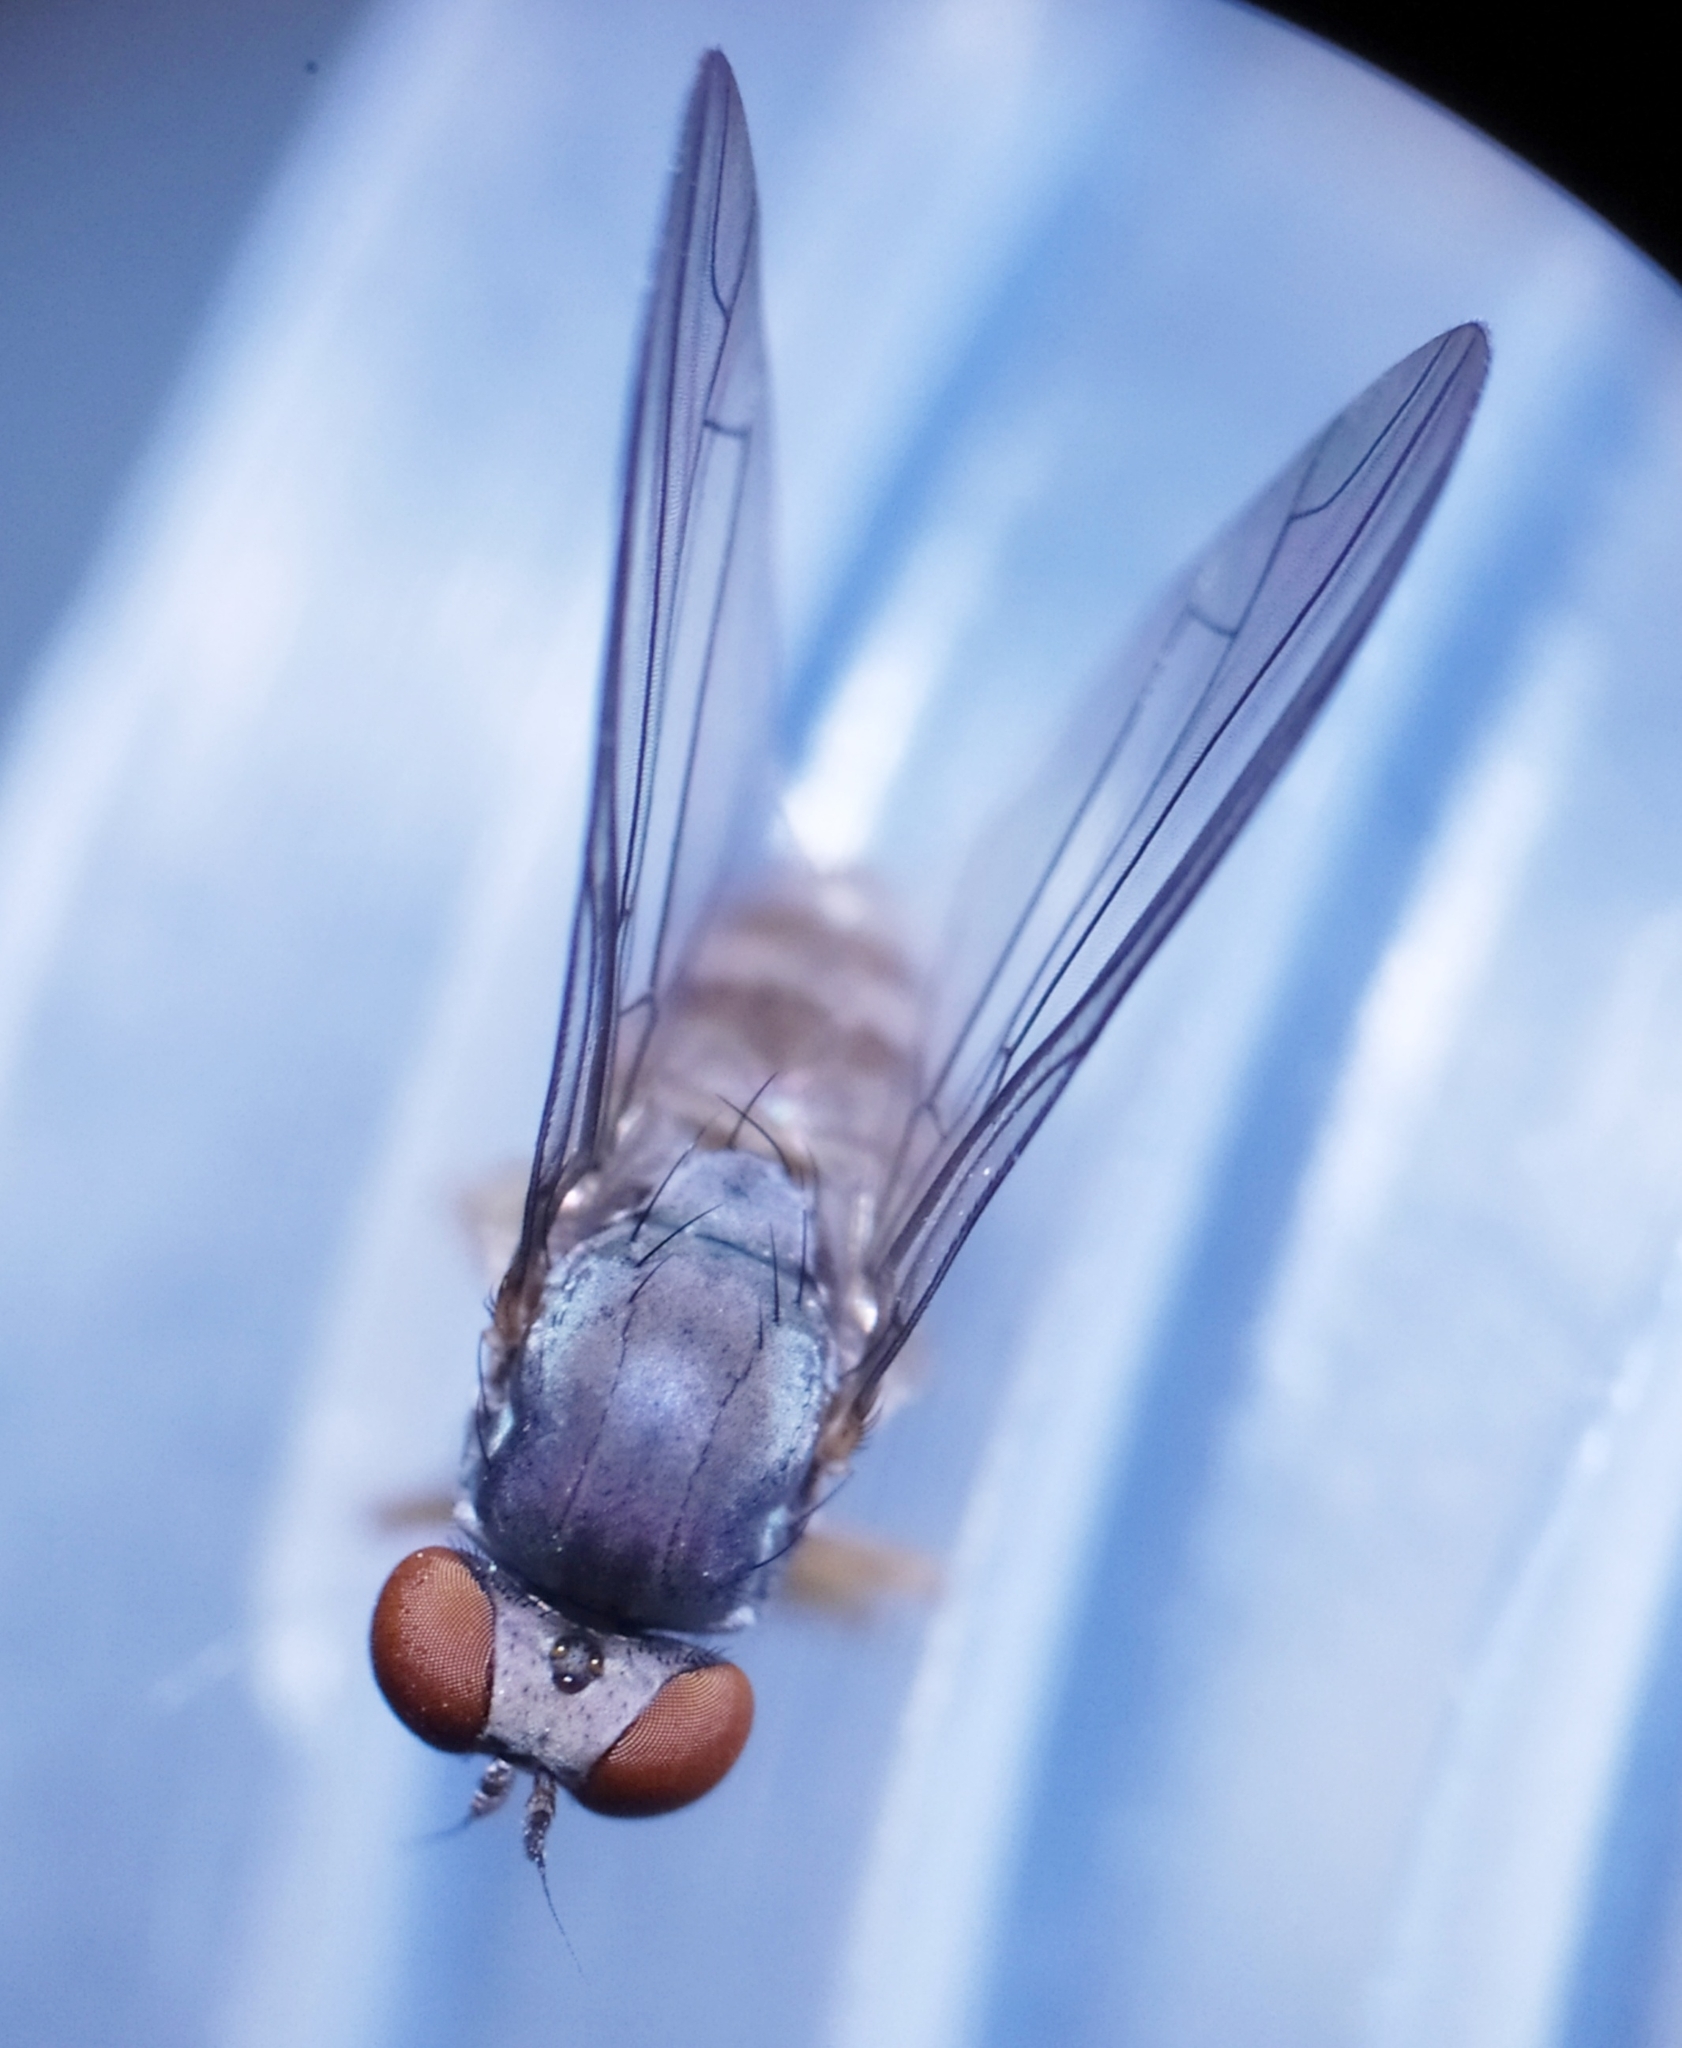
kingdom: Animalia
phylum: Arthropoda
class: Insecta
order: Diptera
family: Platypezidae
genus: Protoclythia
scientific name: Protoclythia rufa
